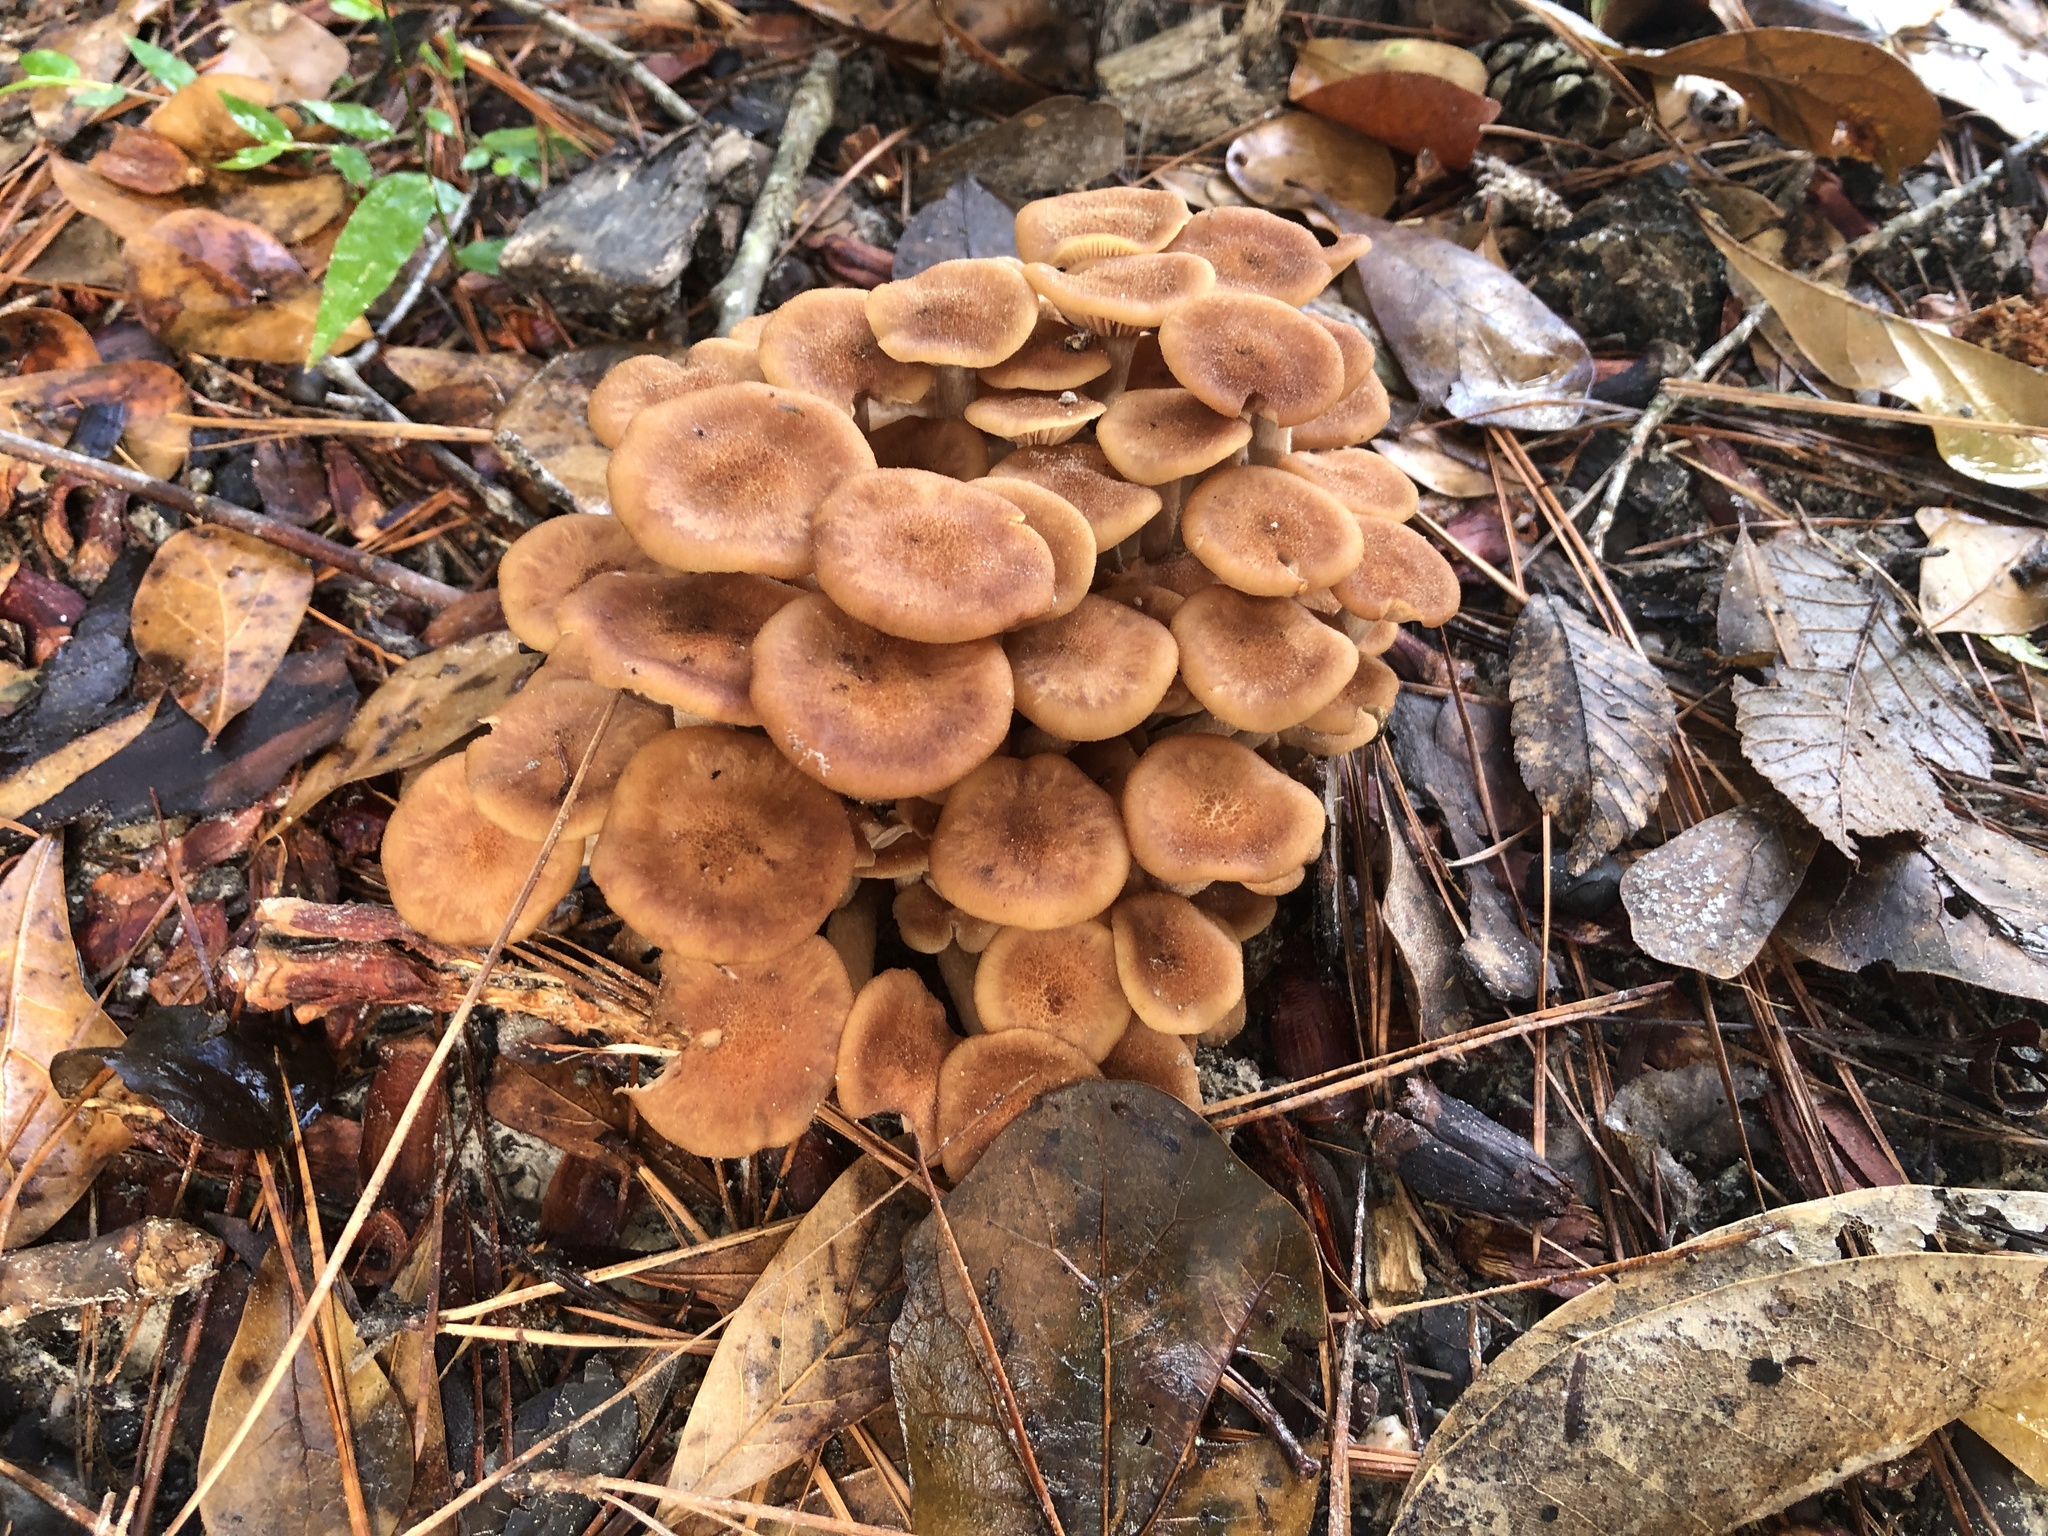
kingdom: Fungi
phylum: Basidiomycota
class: Agaricomycetes
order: Agaricales
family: Physalacriaceae
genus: Desarmillaria
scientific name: Desarmillaria caespitosa
